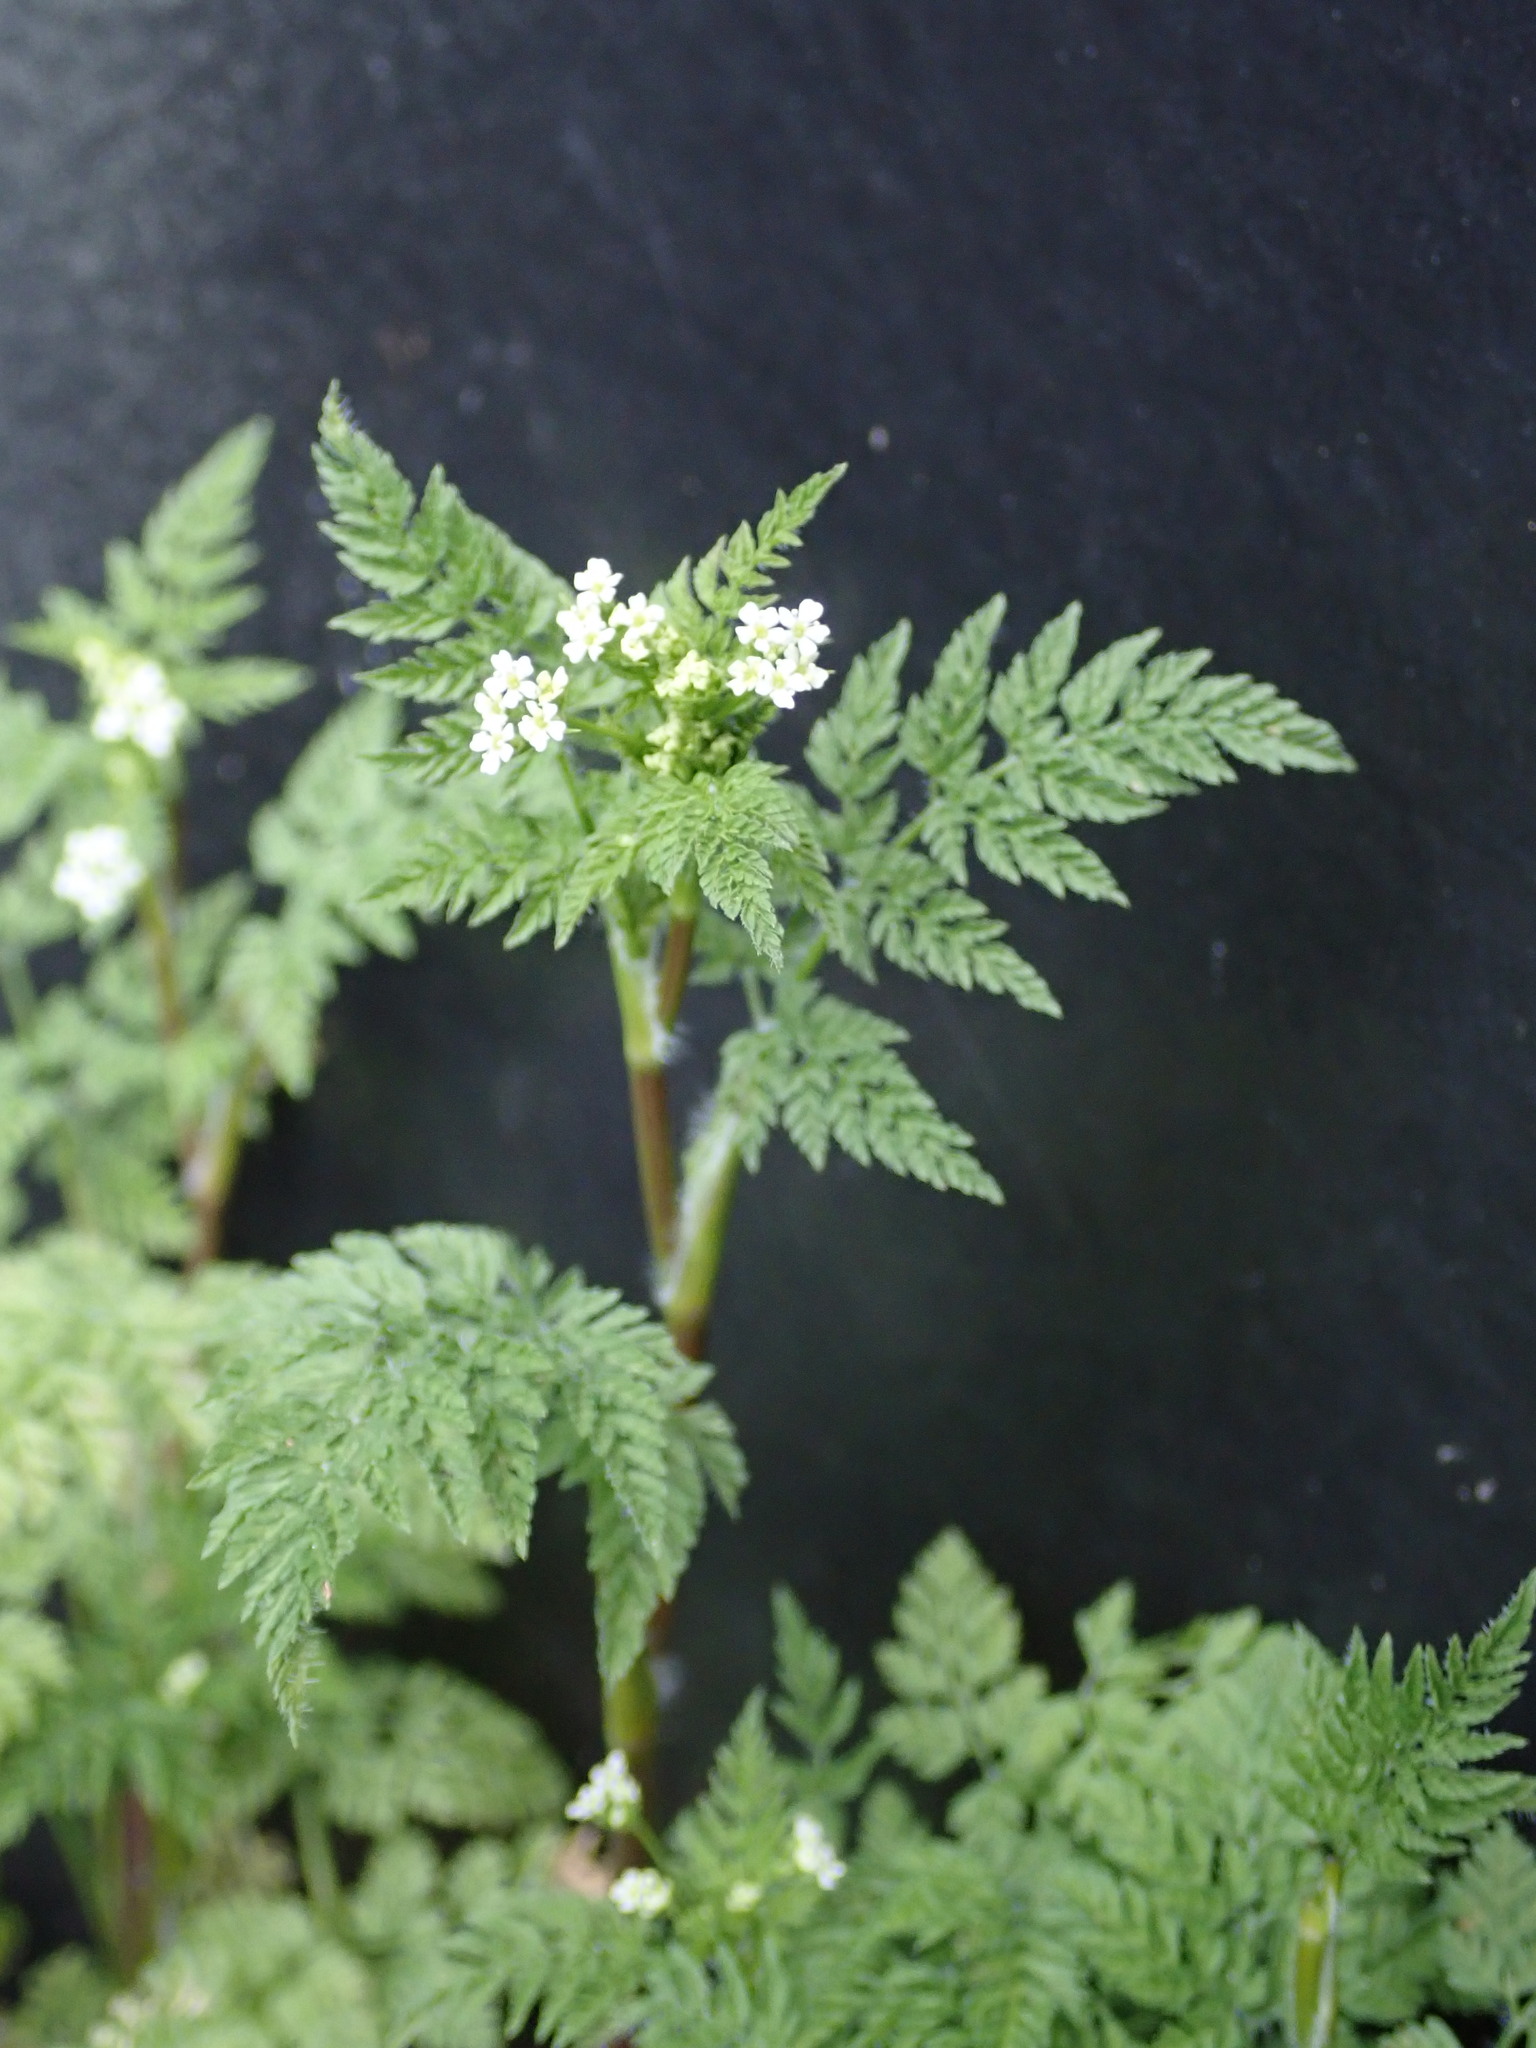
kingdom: Plantae
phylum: Tracheophyta
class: Magnoliopsida
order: Apiales
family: Apiaceae
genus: Anthriscus
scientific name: Anthriscus caucalis
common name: Bur chervil
